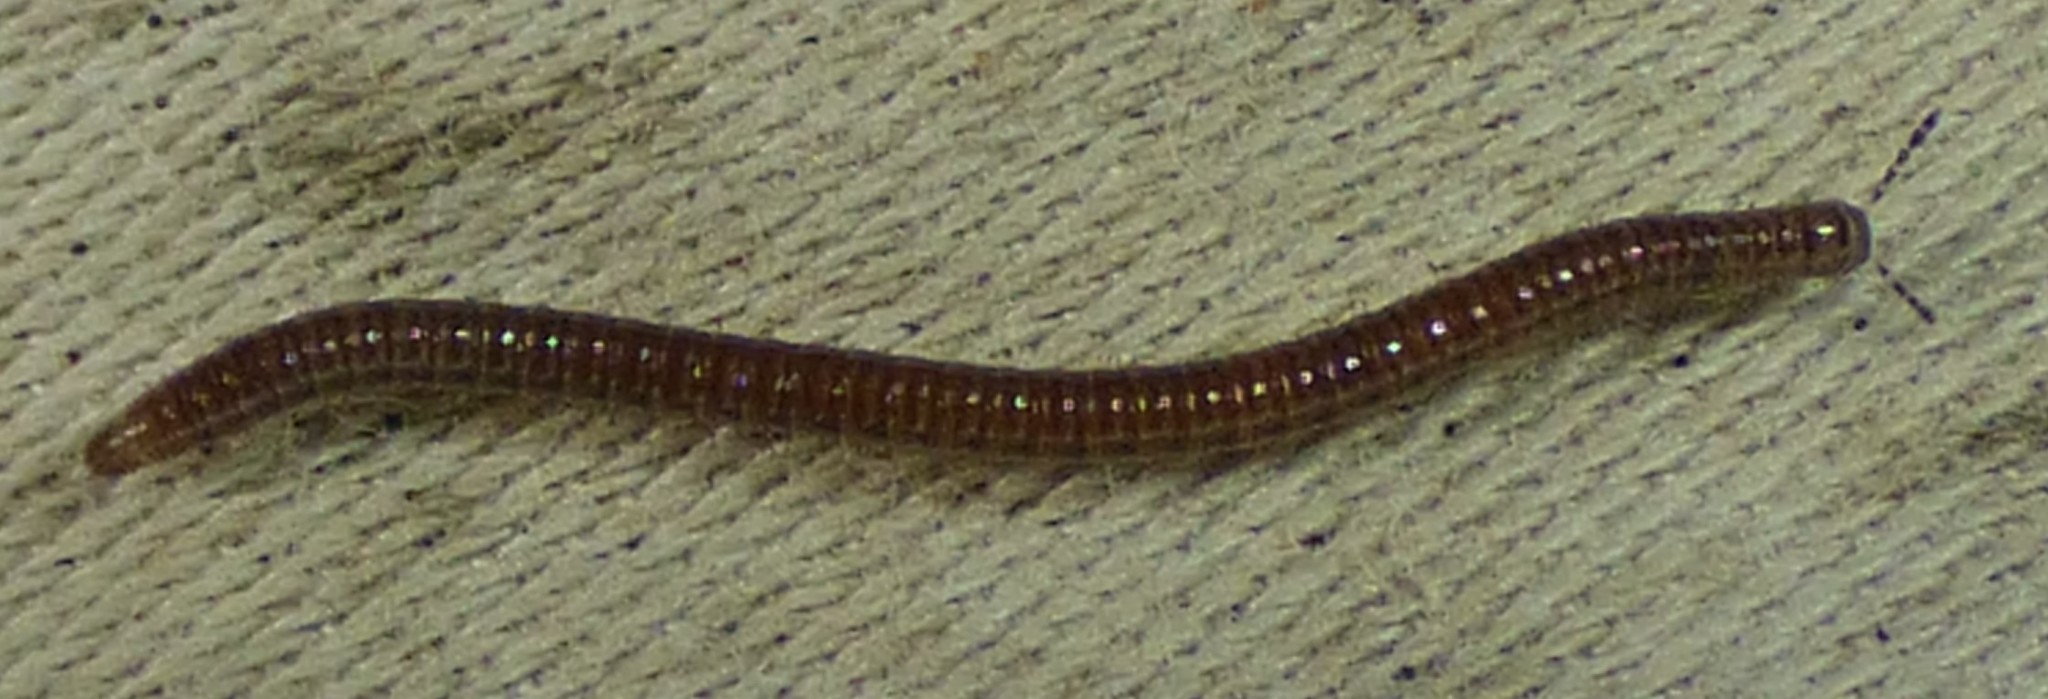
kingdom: Animalia
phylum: Arthropoda
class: Diplopoda
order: Julida
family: Julidae
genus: Ophyiulus
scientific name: Ophyiulus pilosus
